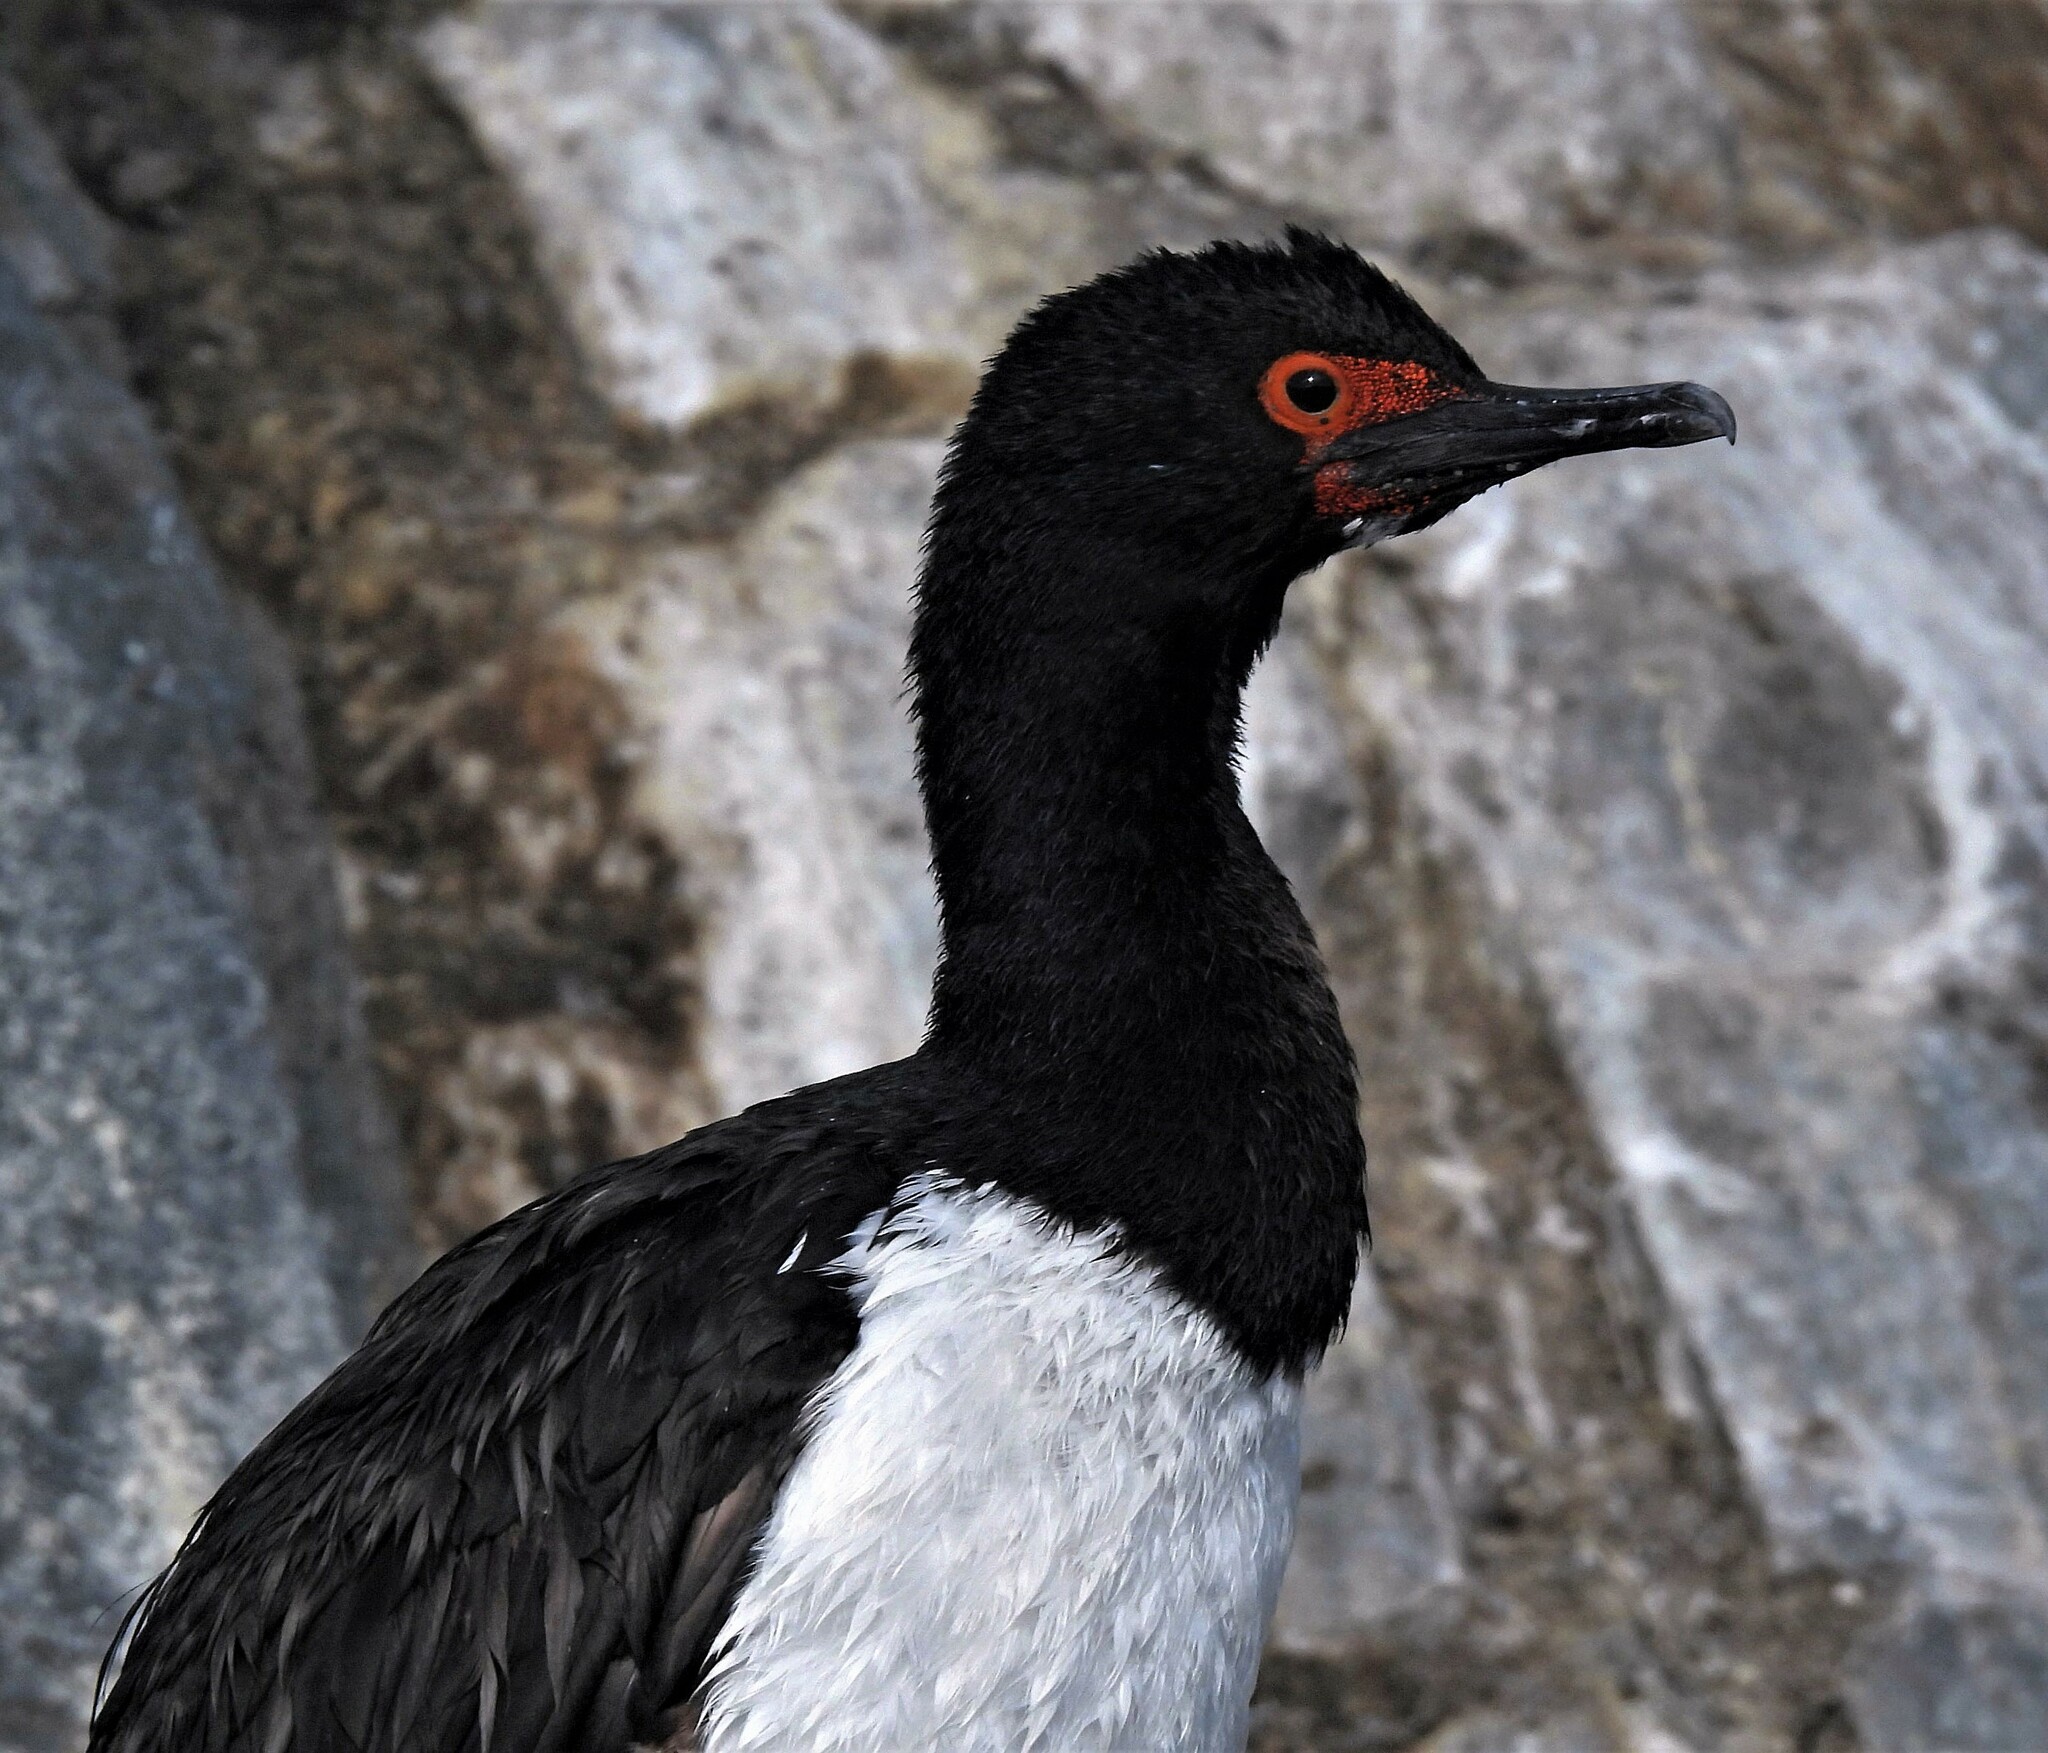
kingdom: Animalia
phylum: Chordata
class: Aves
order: Suliformes
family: Phalacrocoracidae
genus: Phalacrocorax
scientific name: Phalacrocorax magellanicus
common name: Rock shag
